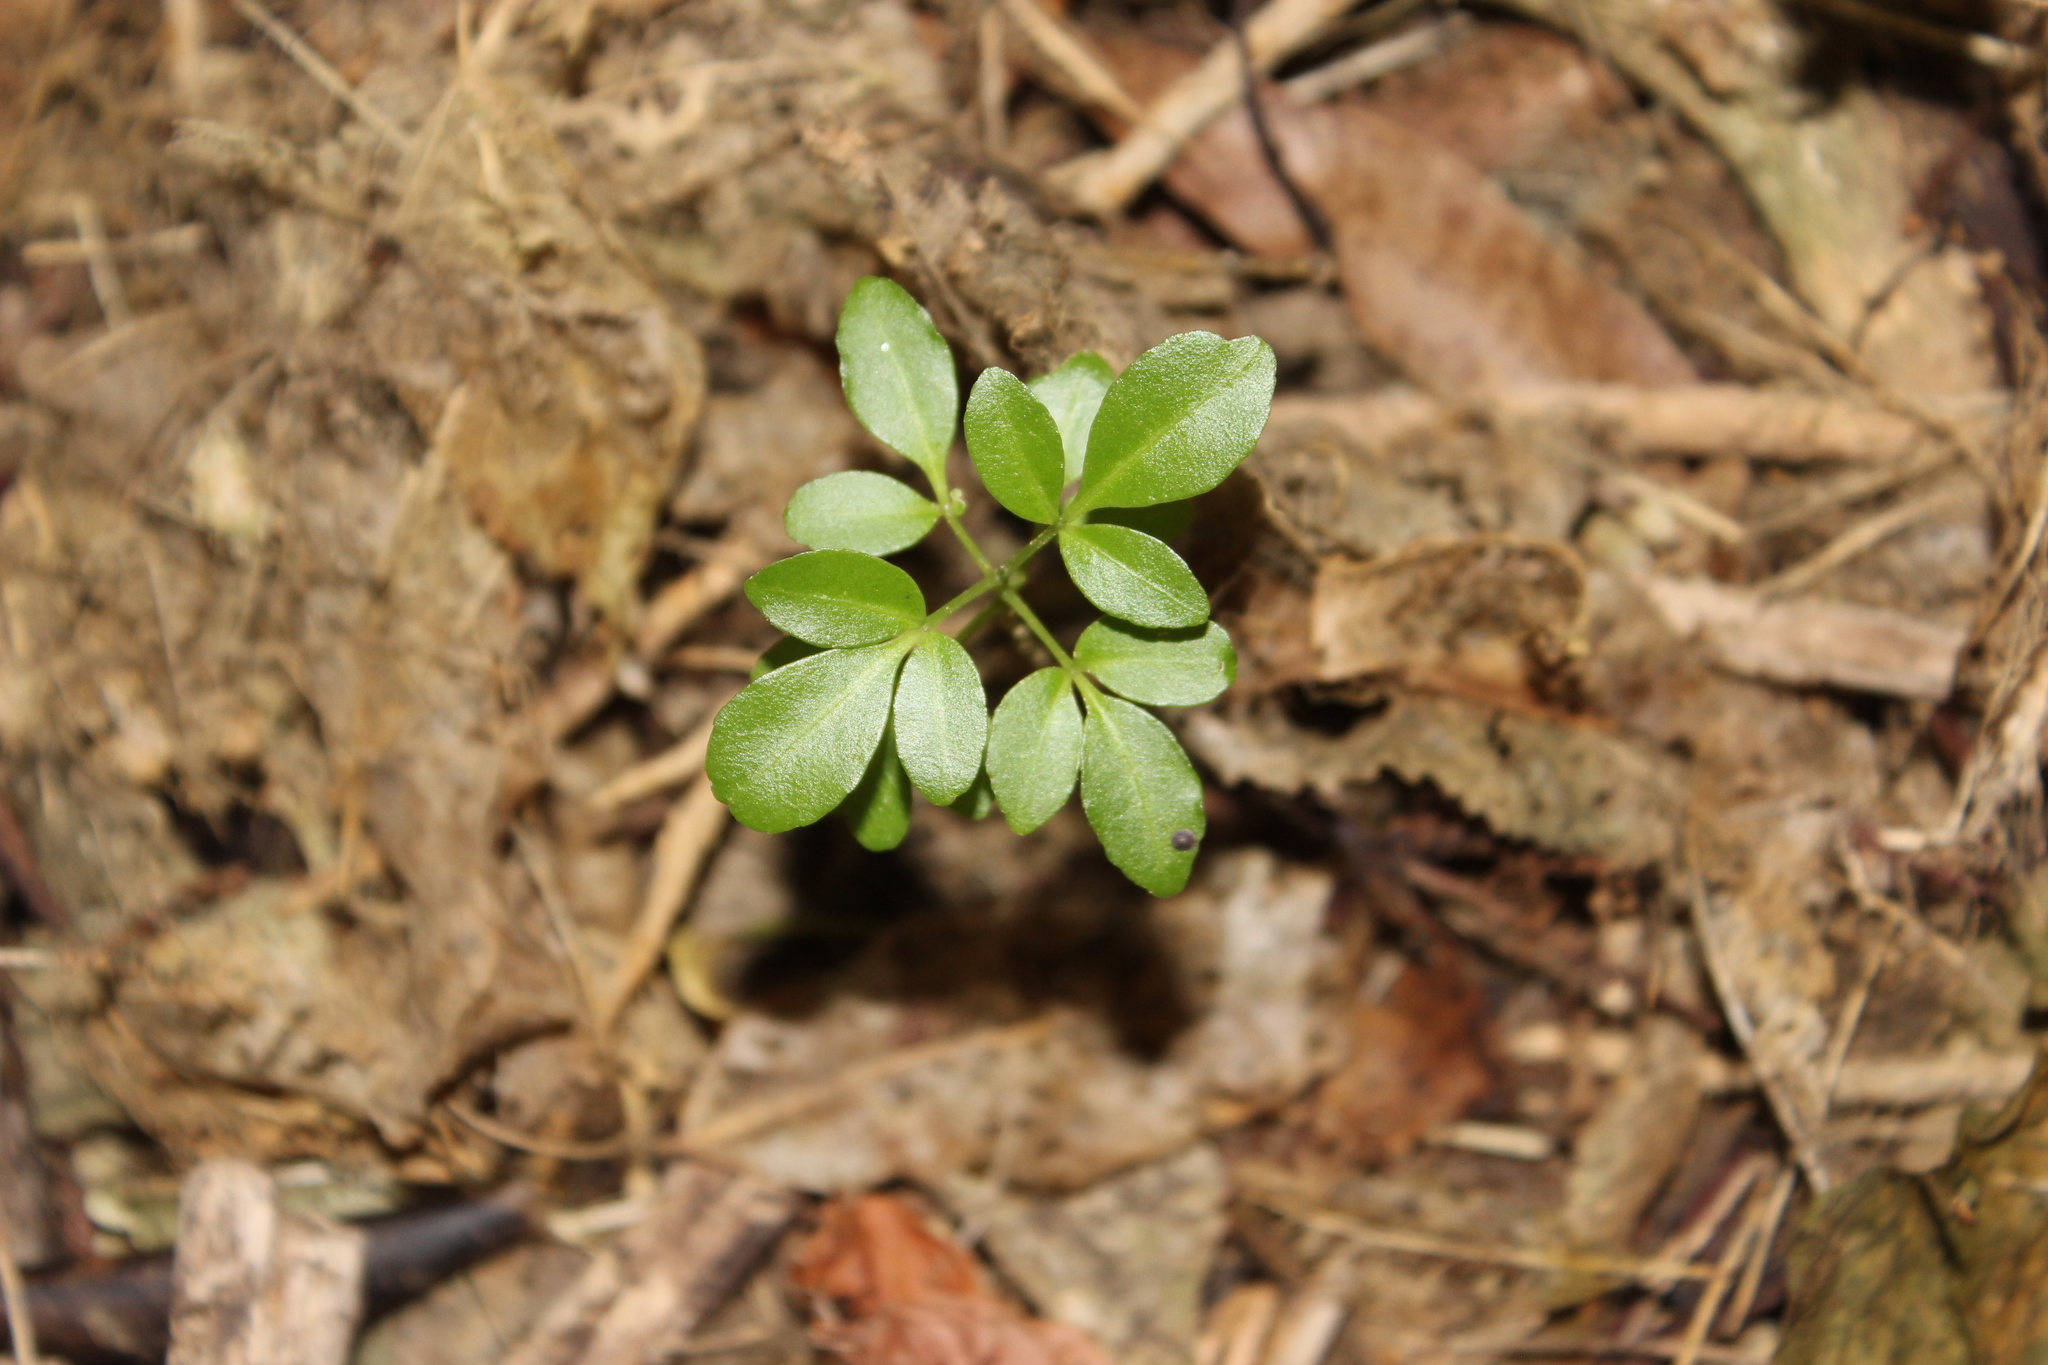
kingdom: Plantae
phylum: Tracheophyta
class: Magnoliopsida
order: Sapindales
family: Rutaceae
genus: Melicope
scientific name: Melicope ternata
